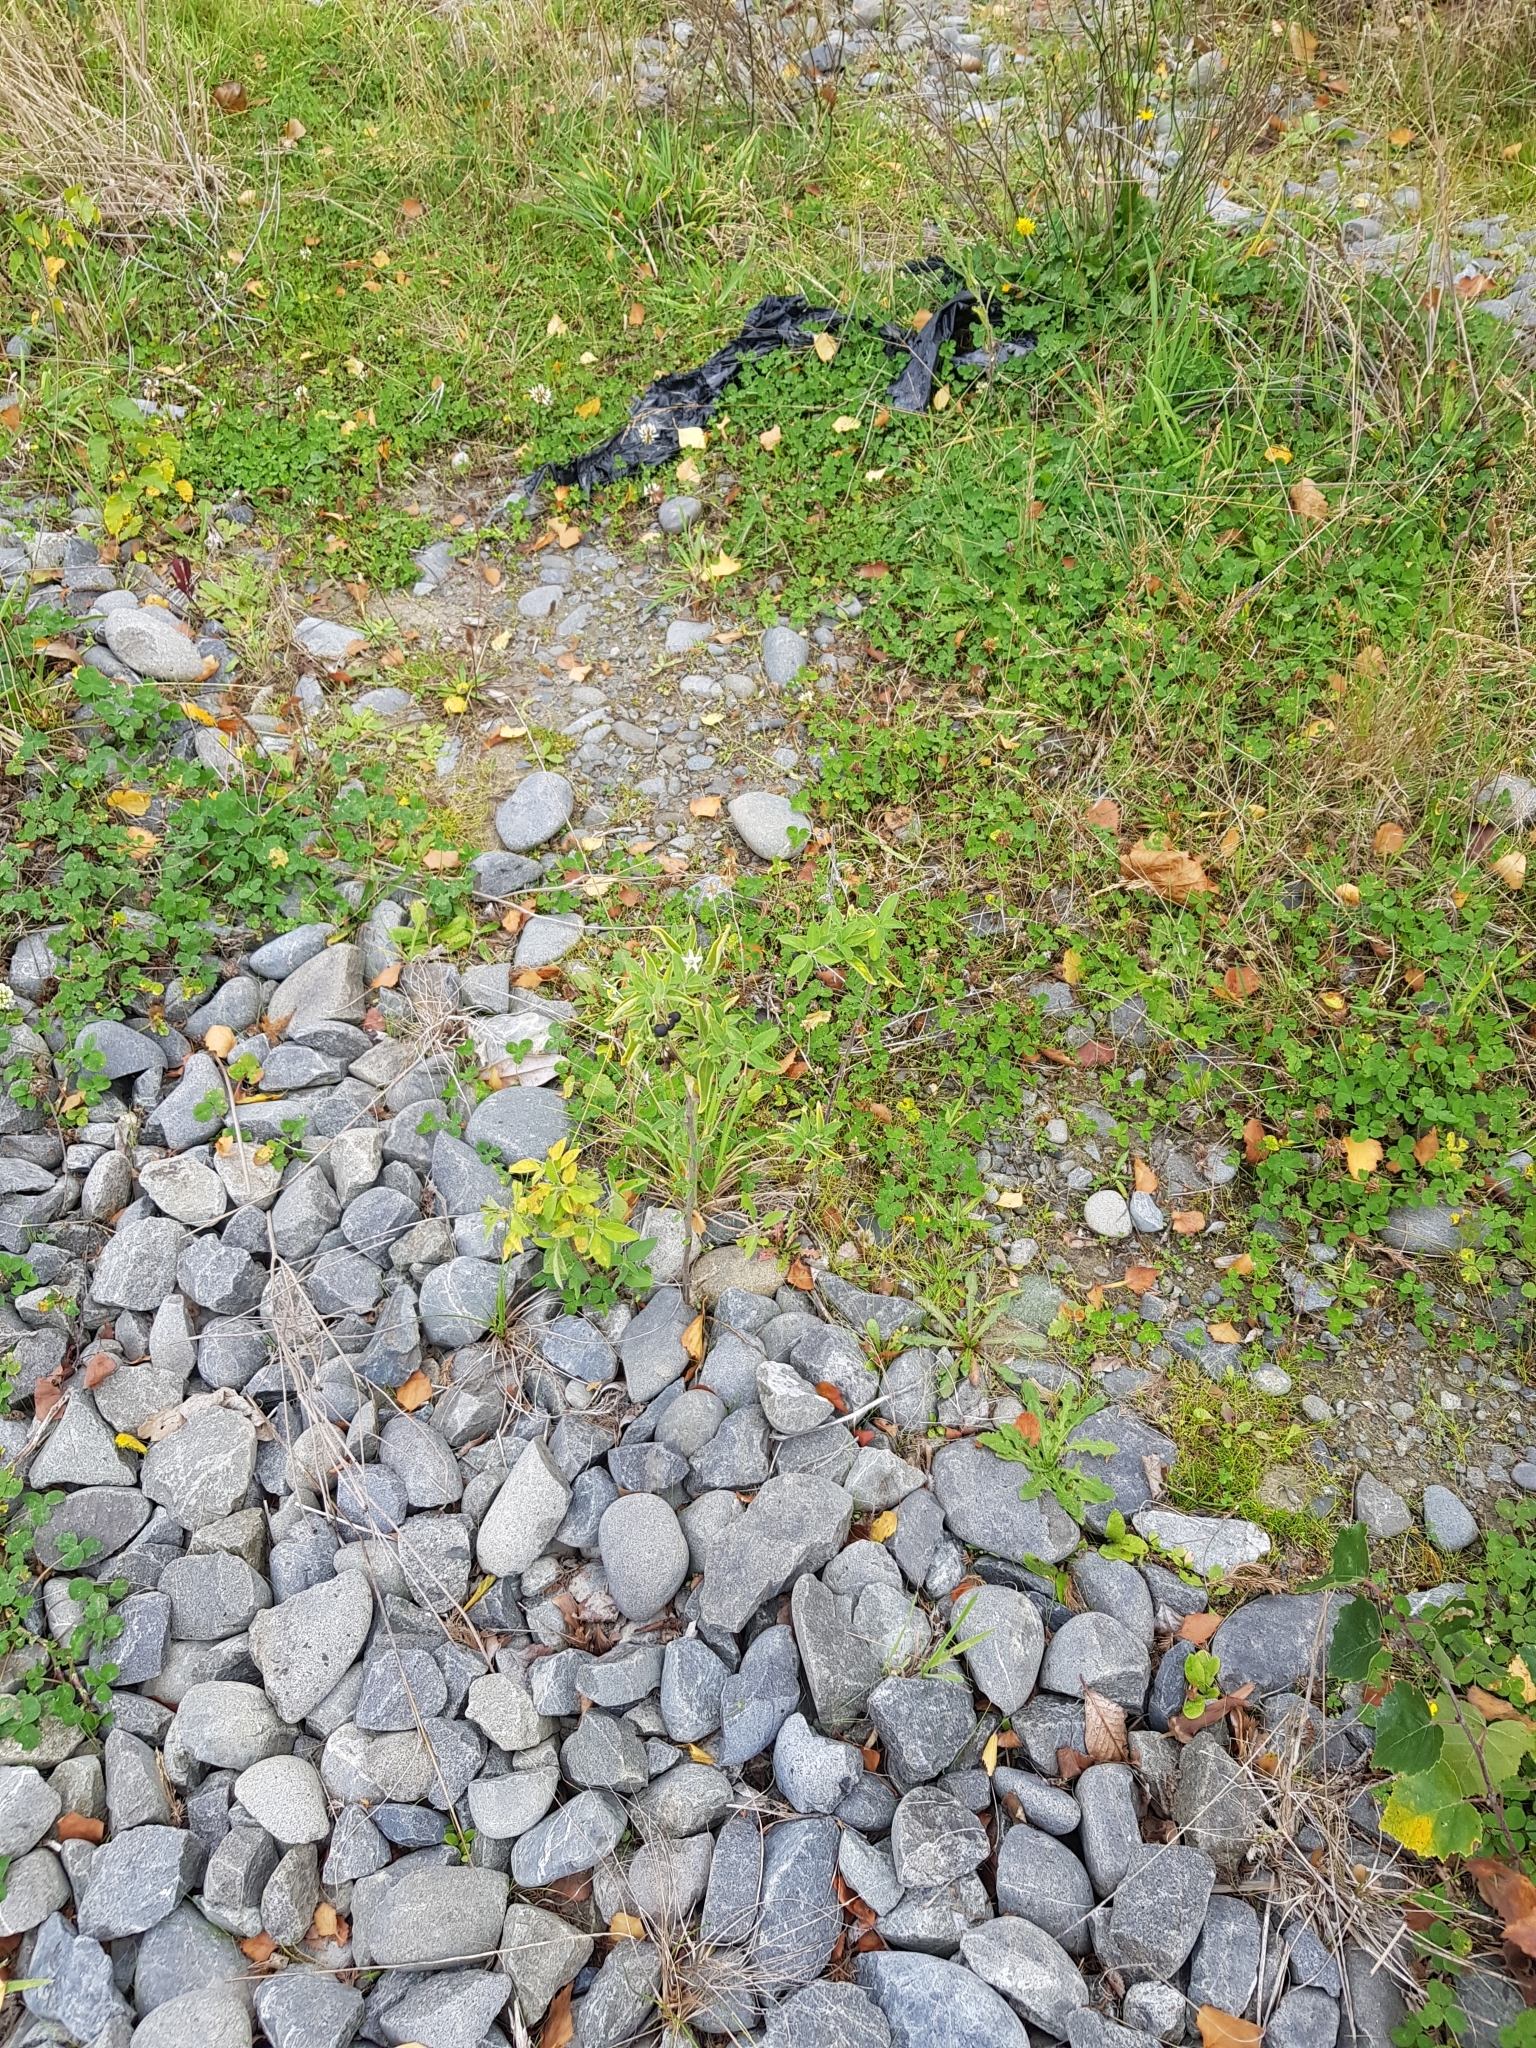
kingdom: Plantae
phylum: Tracheophyta
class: Magnoliopsida
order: Solanales
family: Solanaceae
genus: Solanum
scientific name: Solanum chenopodioides
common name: Tall nightshade
